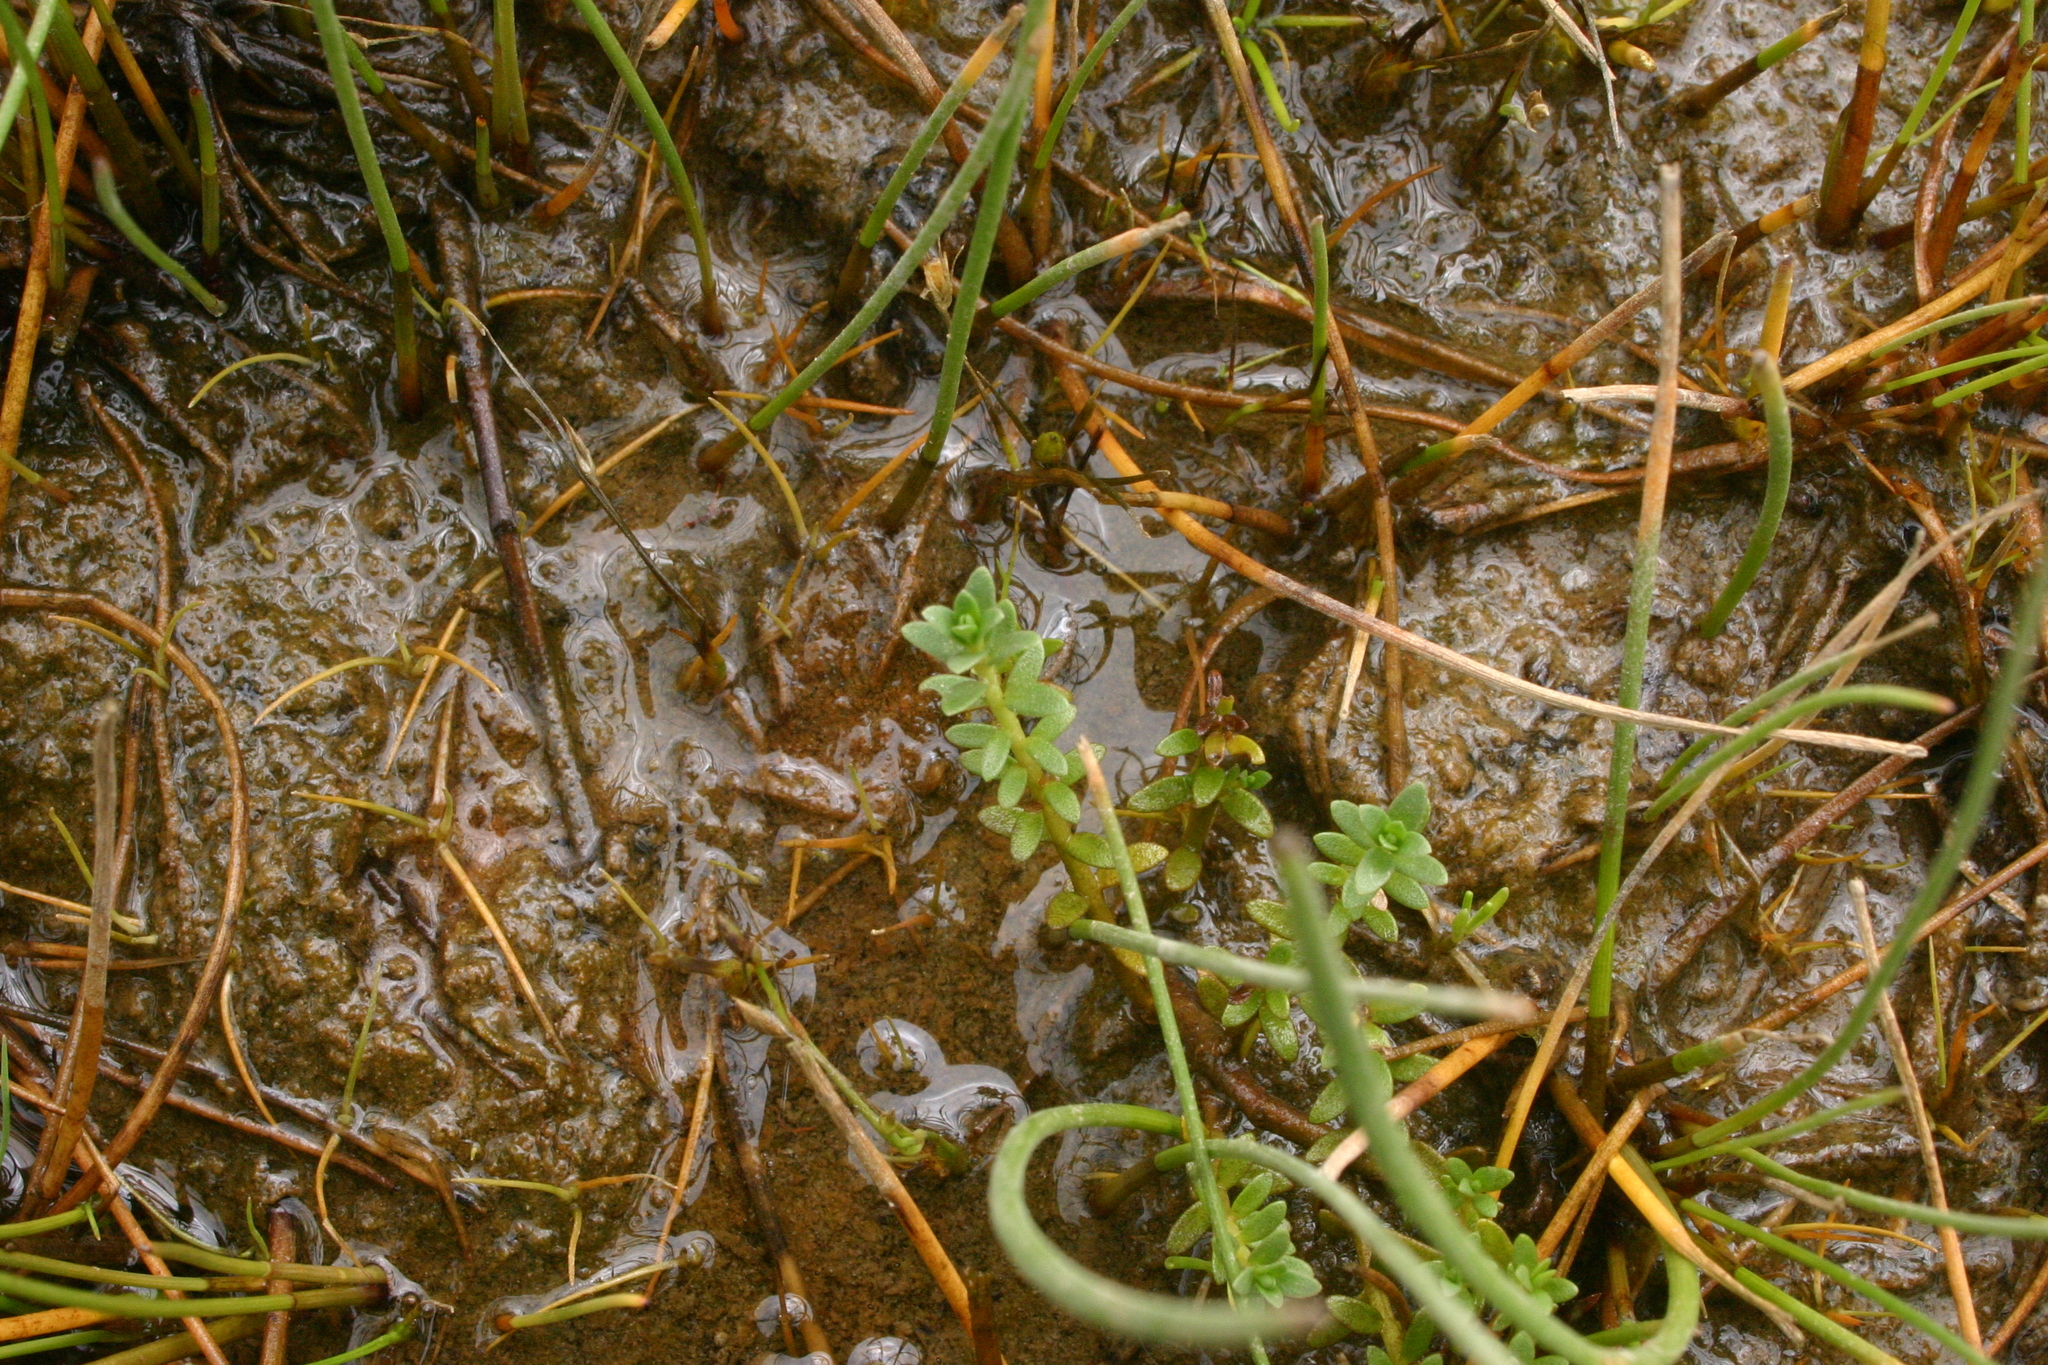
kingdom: Plantae
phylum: Tracheophyta
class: Magnoliopsida
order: Ericales
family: Primulaceae
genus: Lysimachia
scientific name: Lysimachia maritima
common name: Sea milkwort
